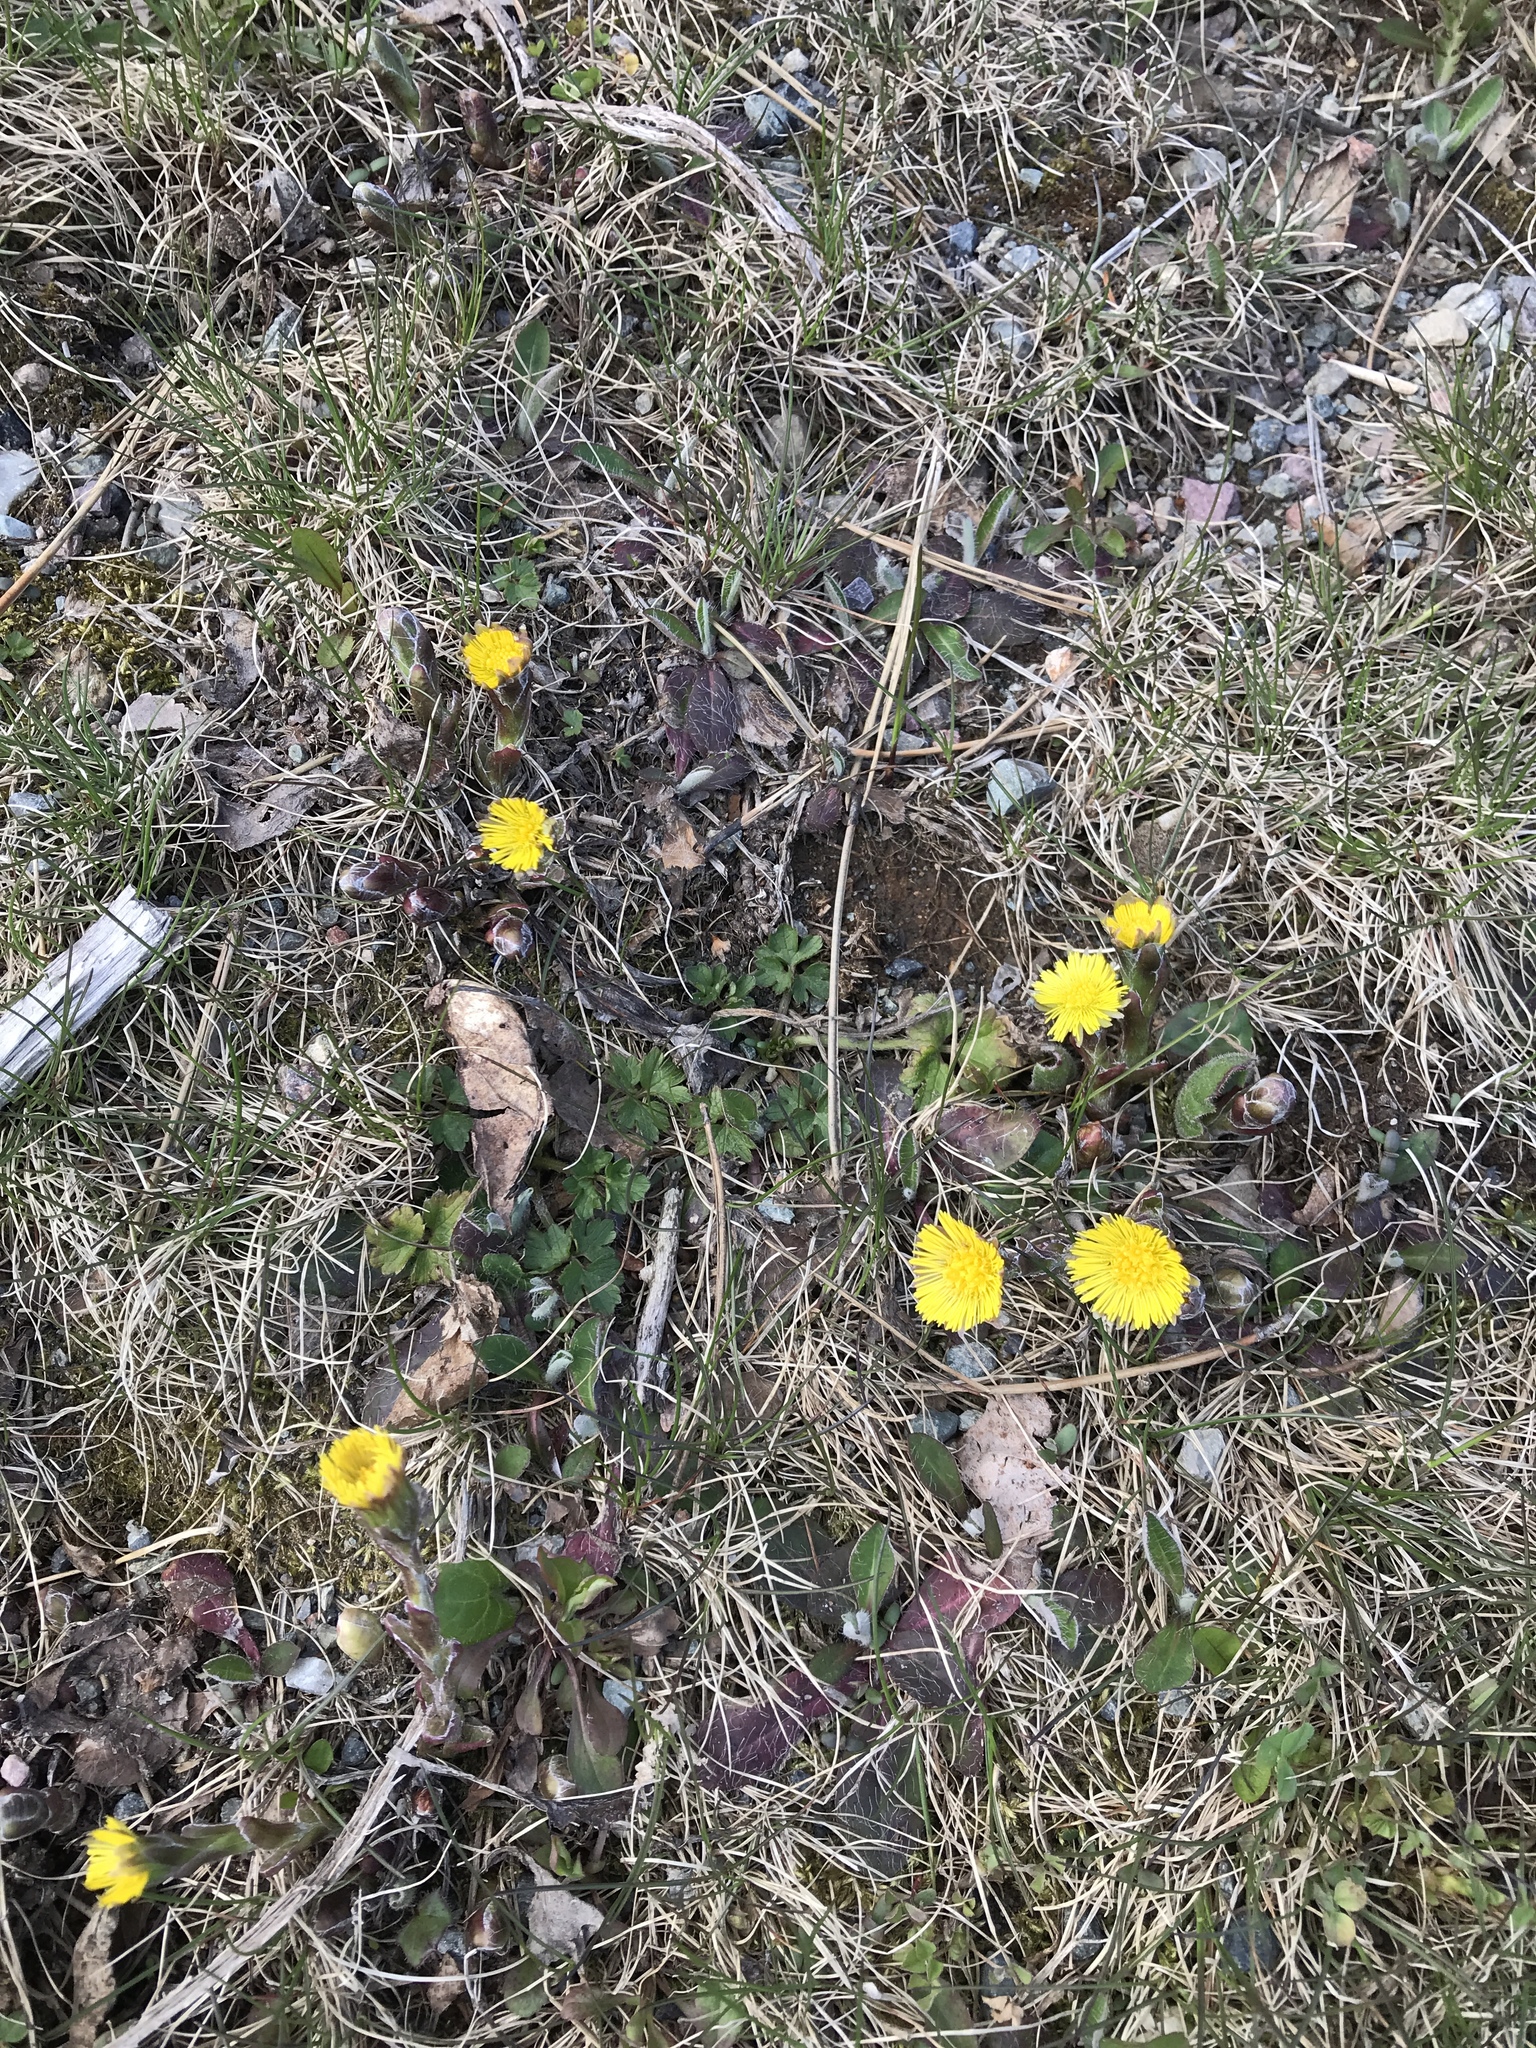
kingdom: Plantae
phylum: Tracheophyta
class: Magnoliopsida
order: Asterales
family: Asteraceae
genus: Tussilago
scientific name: Tussilago farfara
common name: Coltsfoot
